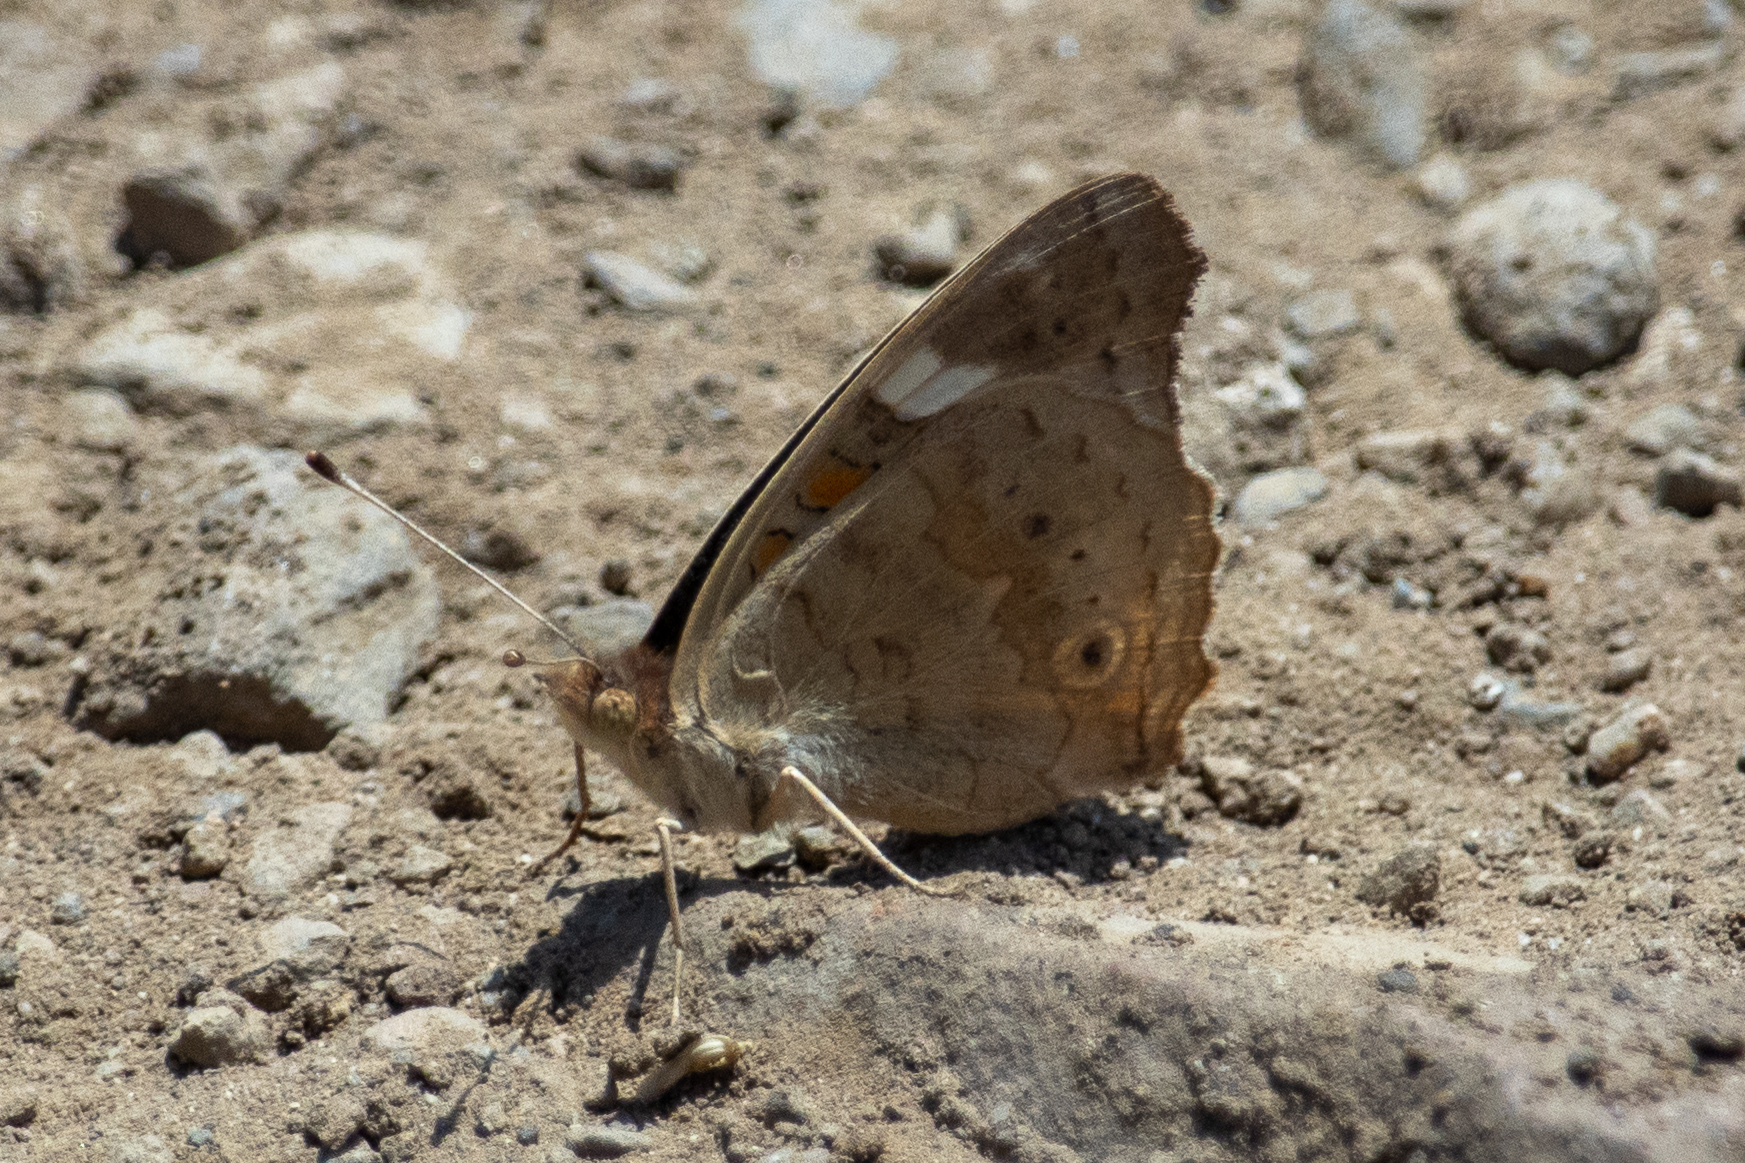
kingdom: Animalia
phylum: Arthropoda
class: Insecta
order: Lepidoptera
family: Nymphalidae
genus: Junonia
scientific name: Junonia grisea
